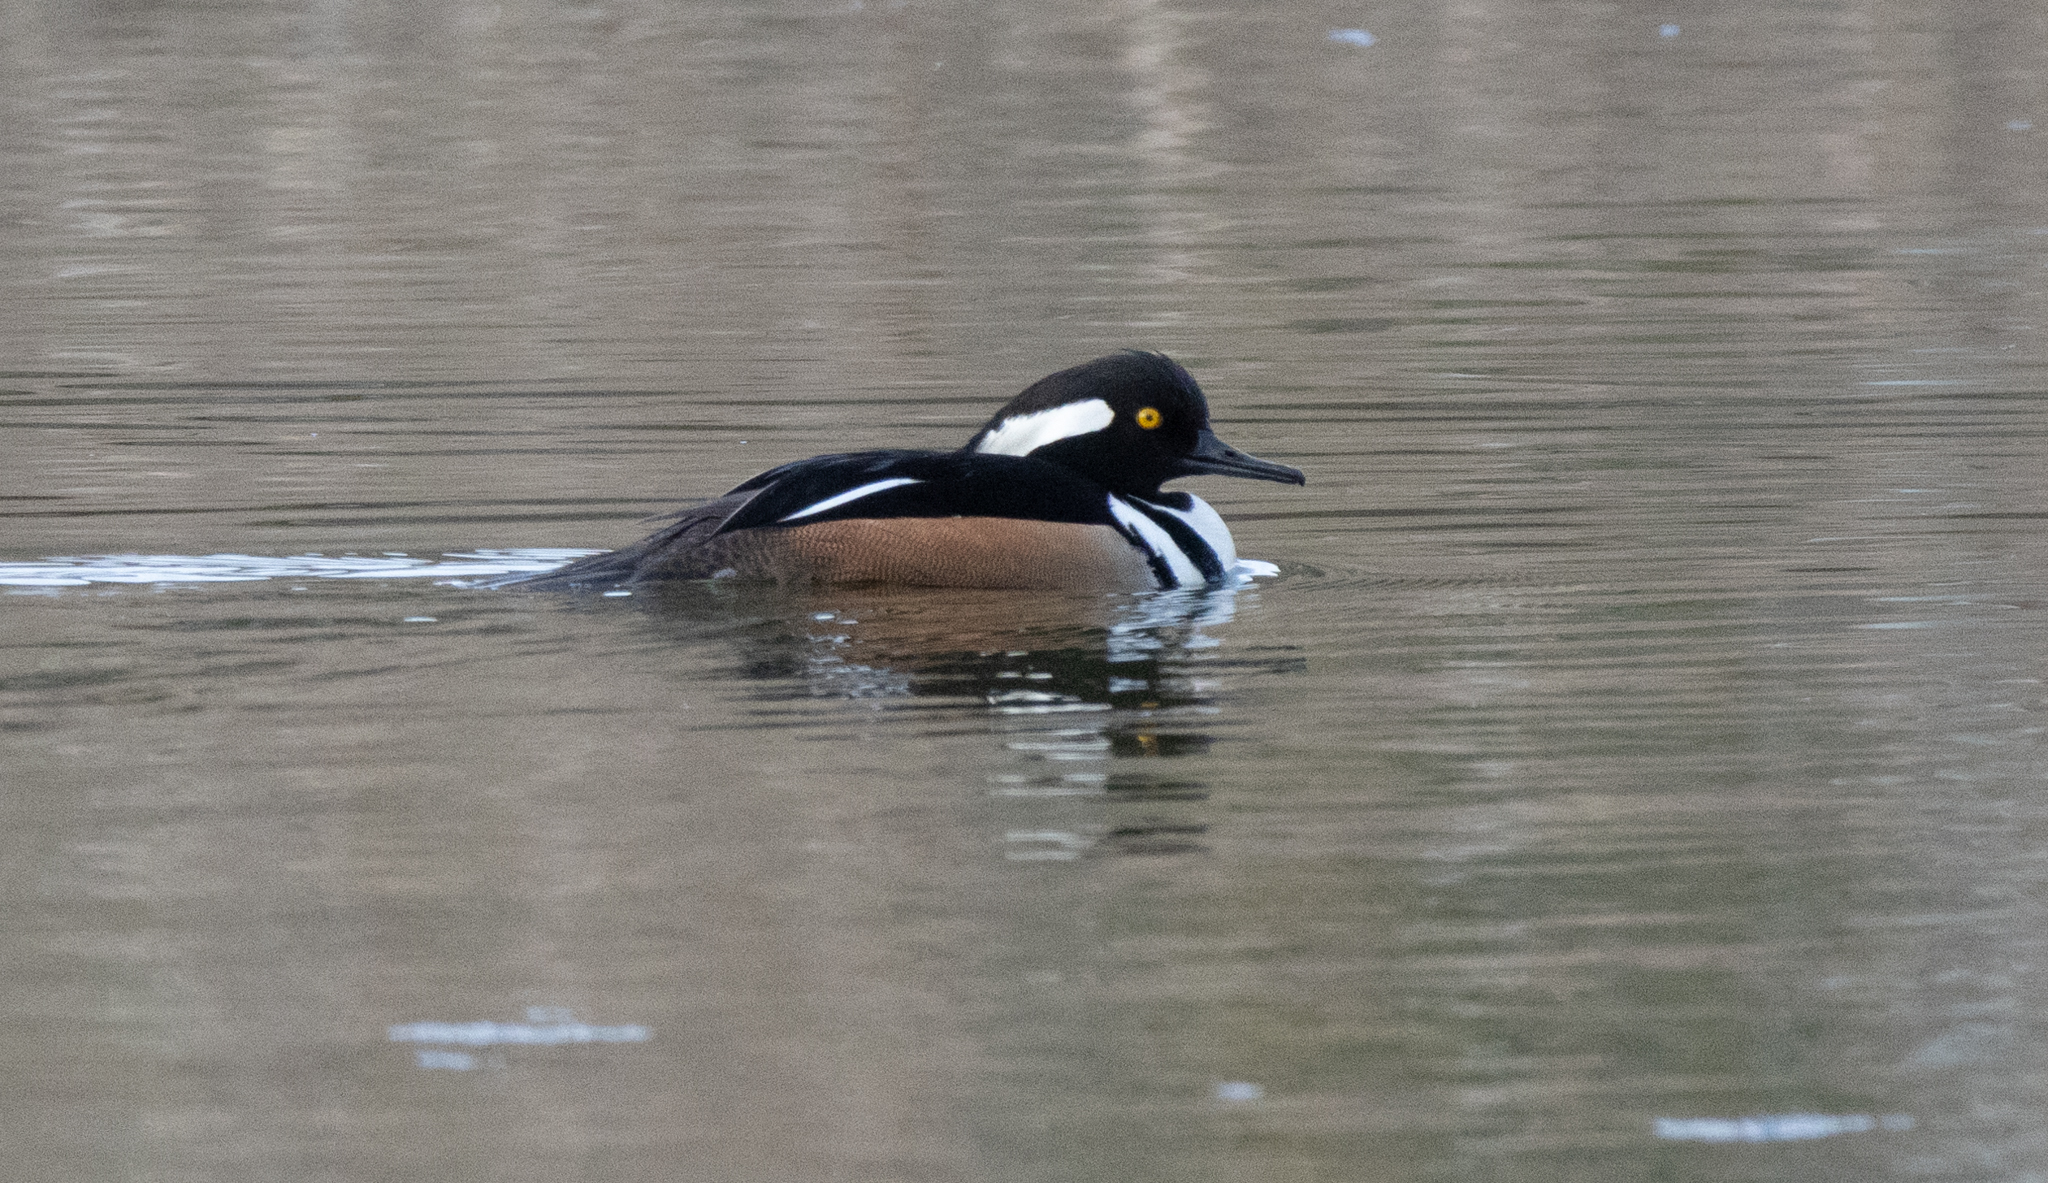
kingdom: Animalia
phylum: Chordata
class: Aves
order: Anseriformes
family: Anatidae
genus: Lophodytes
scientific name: Lophodytes cucullatus
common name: Hooded merganser
